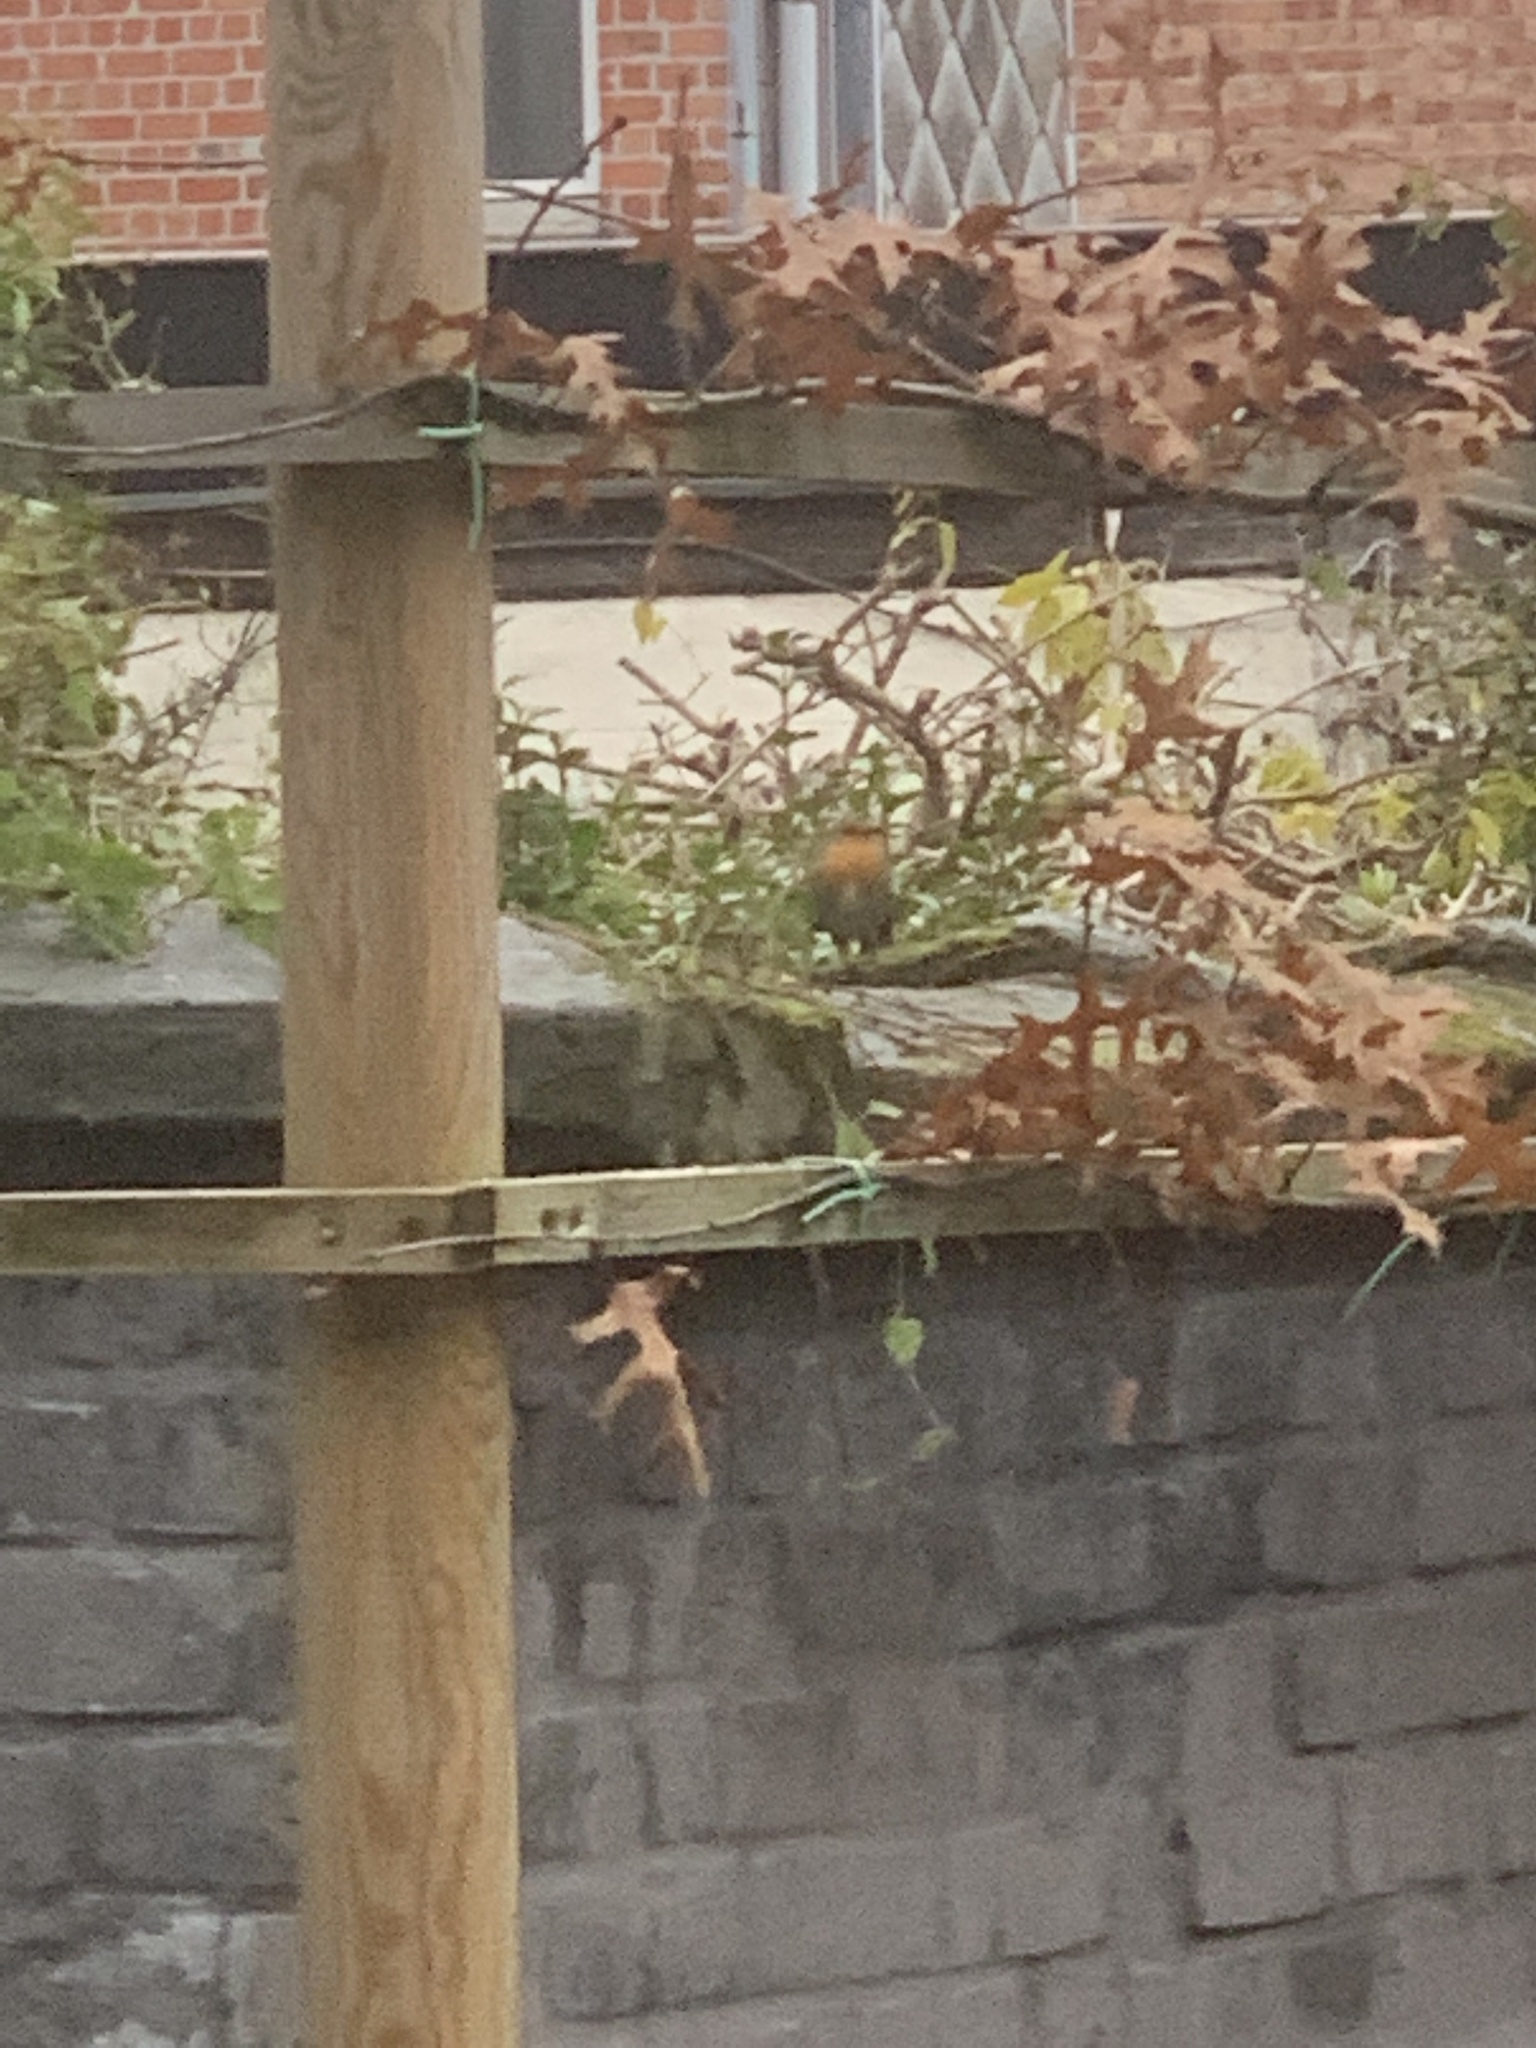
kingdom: Animalia
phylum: Chordata
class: Aves
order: Passeriformes
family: Muscicapidae
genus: Erithacus
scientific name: Erithacus rubecula
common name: European robin
